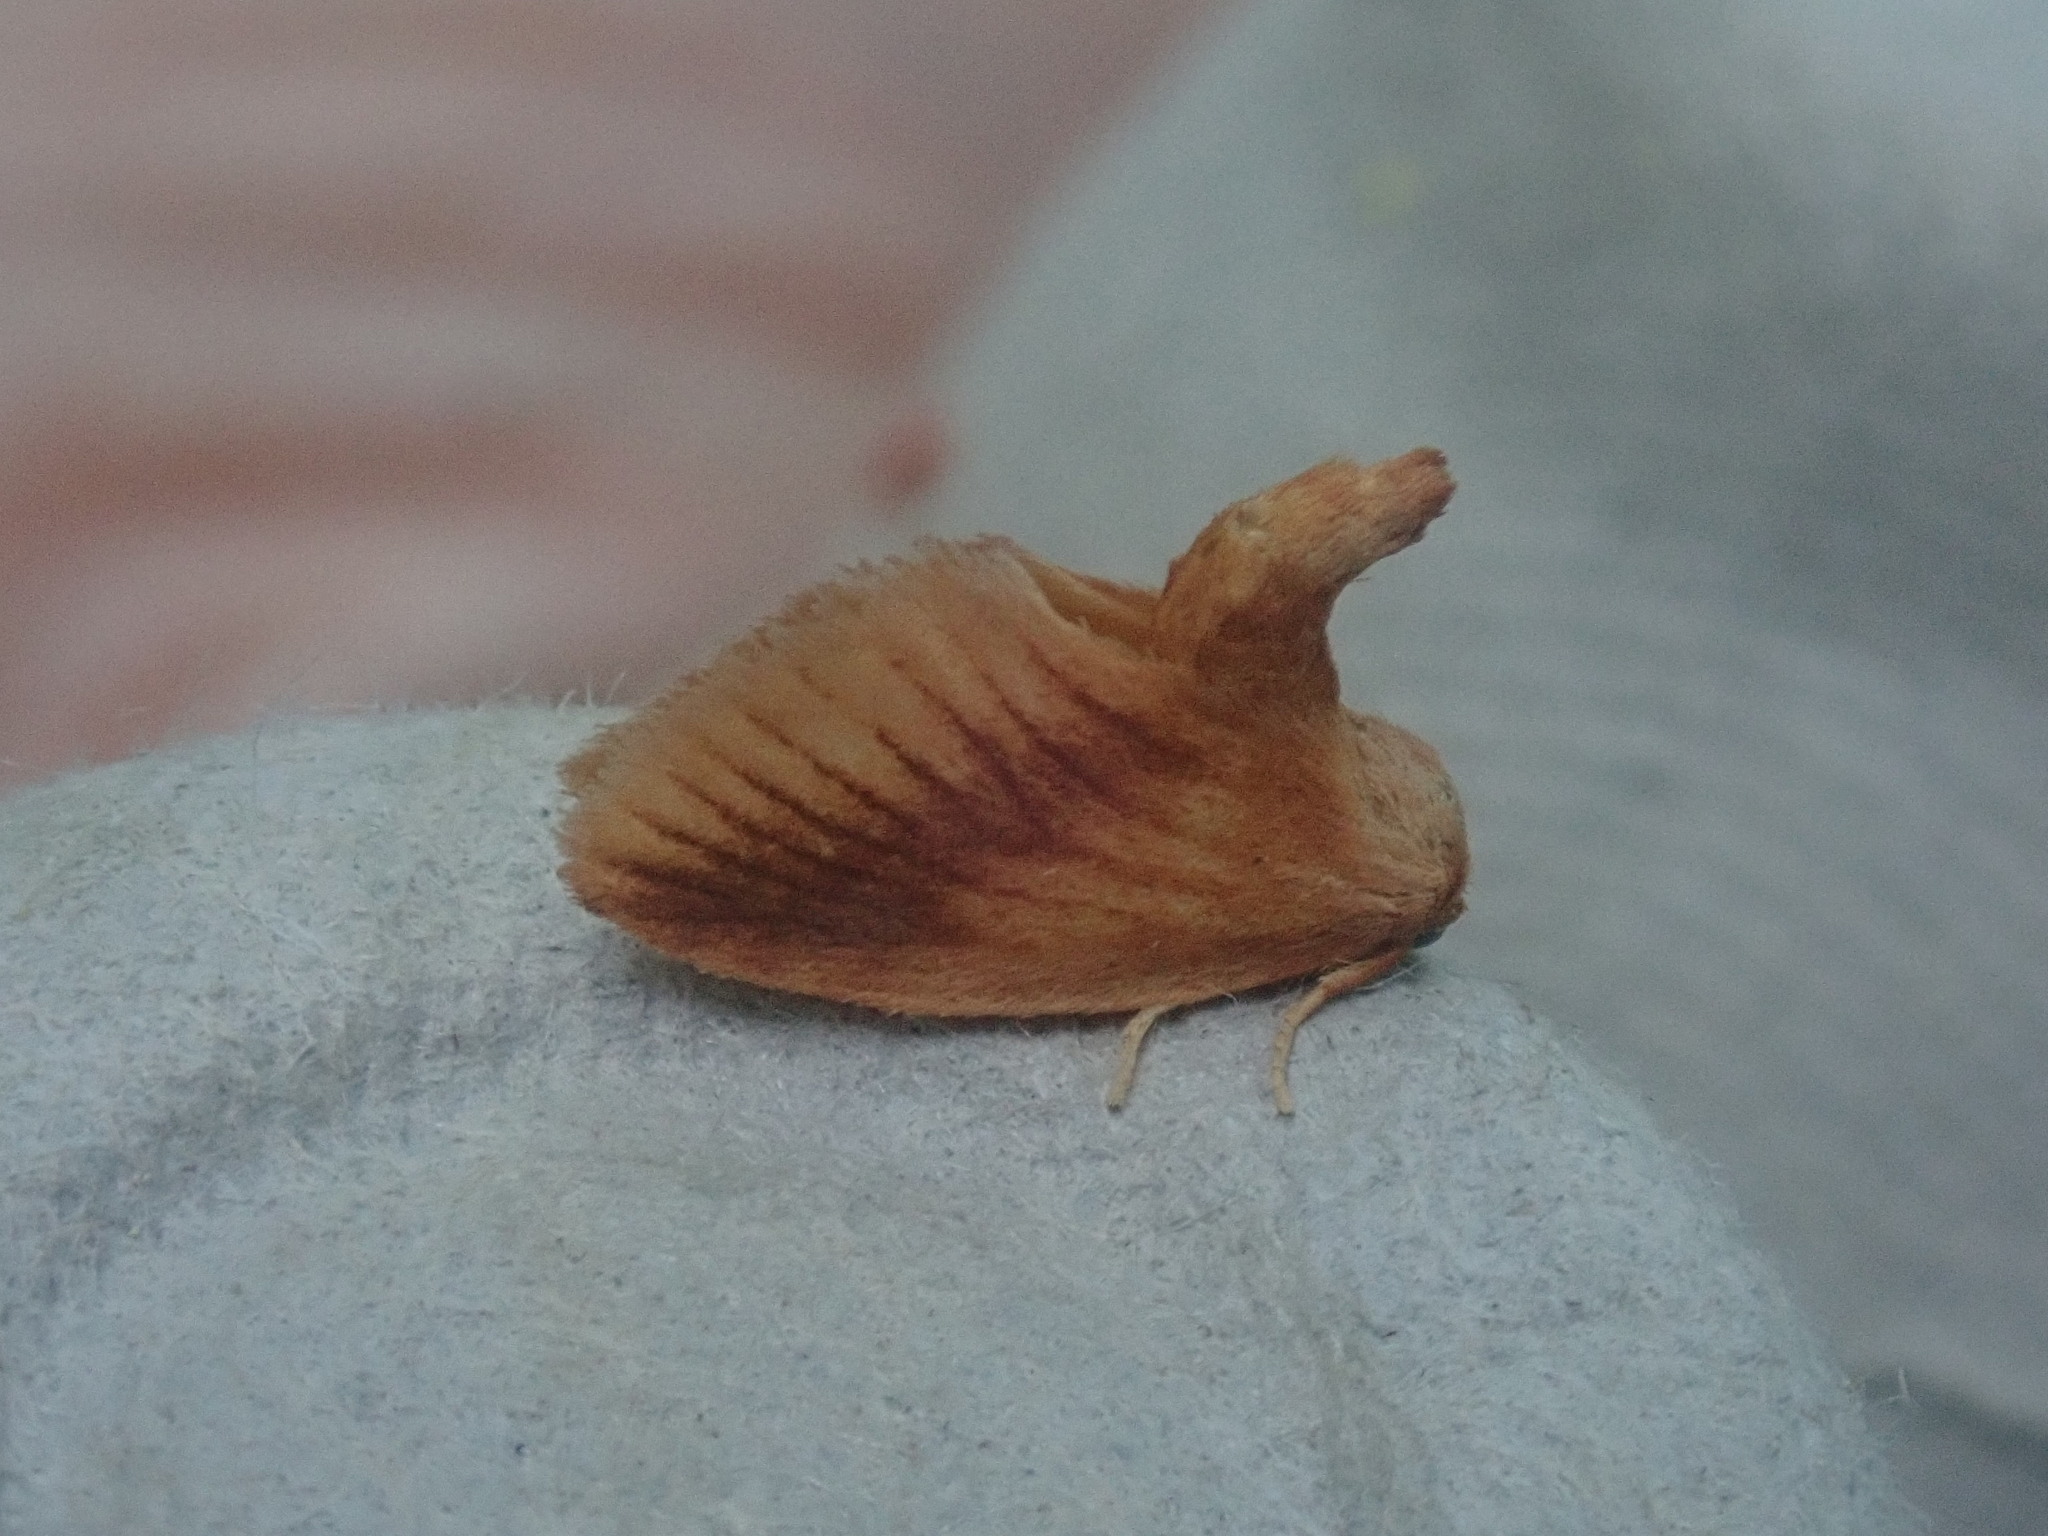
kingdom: Animalia
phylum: Arthropoda
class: Insecta
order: Lepidoptera
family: Limacodidae
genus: Tortricidia
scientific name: Tortricidia testacea
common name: Early button slug moth
